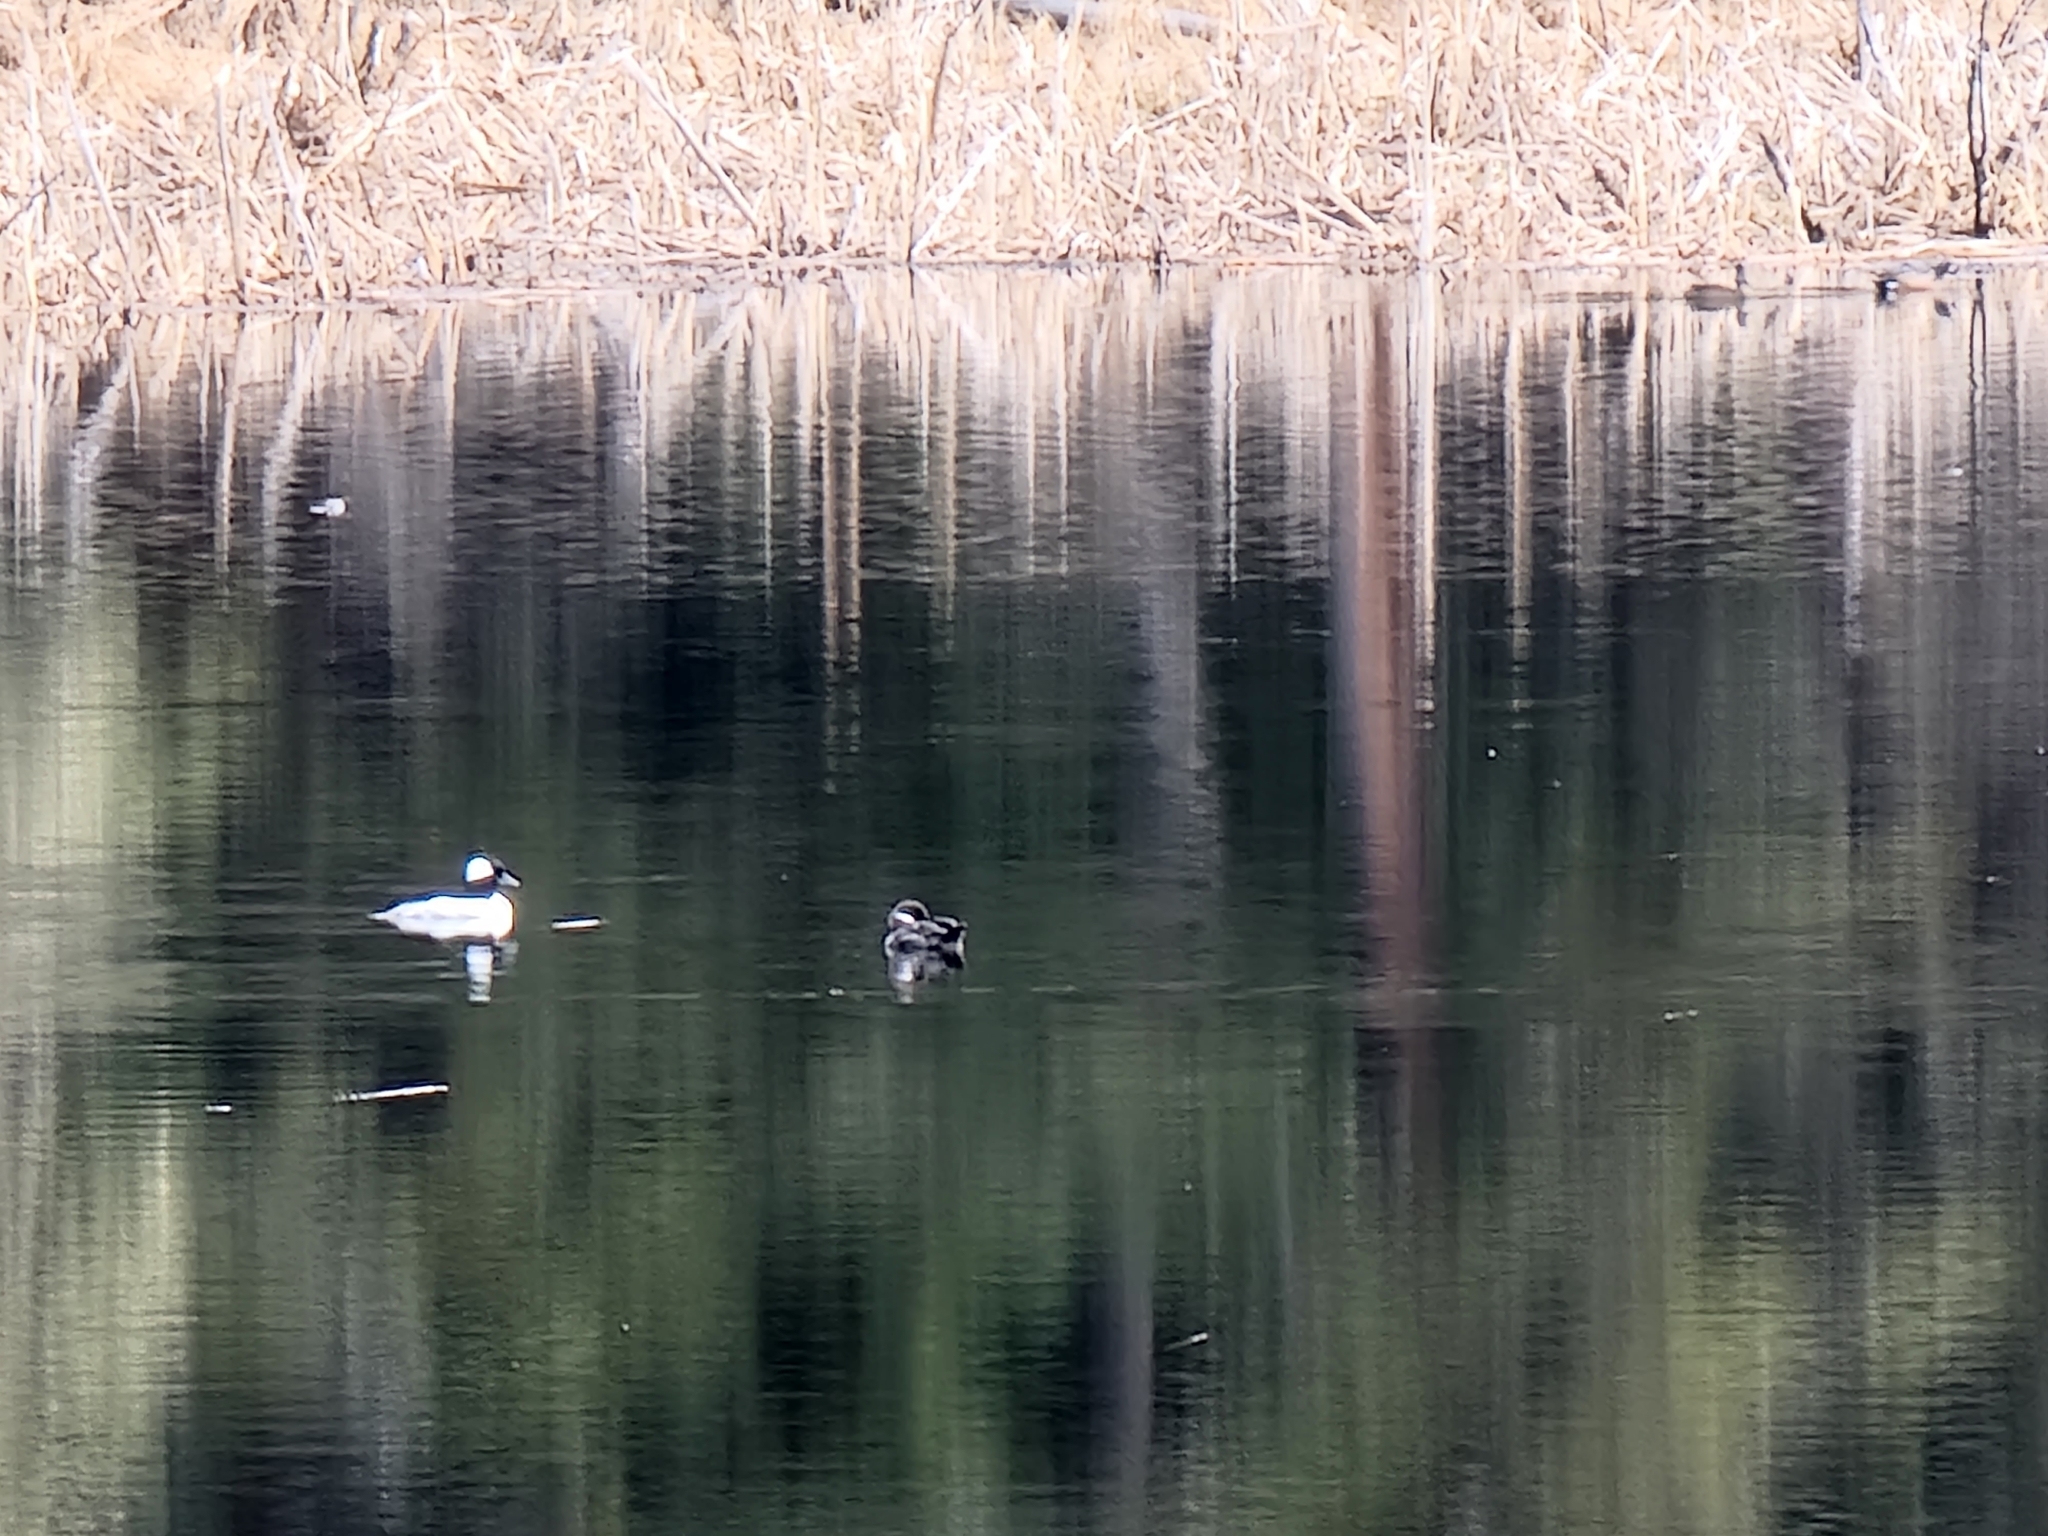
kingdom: Animalia
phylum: Chordata
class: Aves
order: Anseriformes
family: Anatidae
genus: Bucephala
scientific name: Bucephala albeola
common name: Bufflehead
